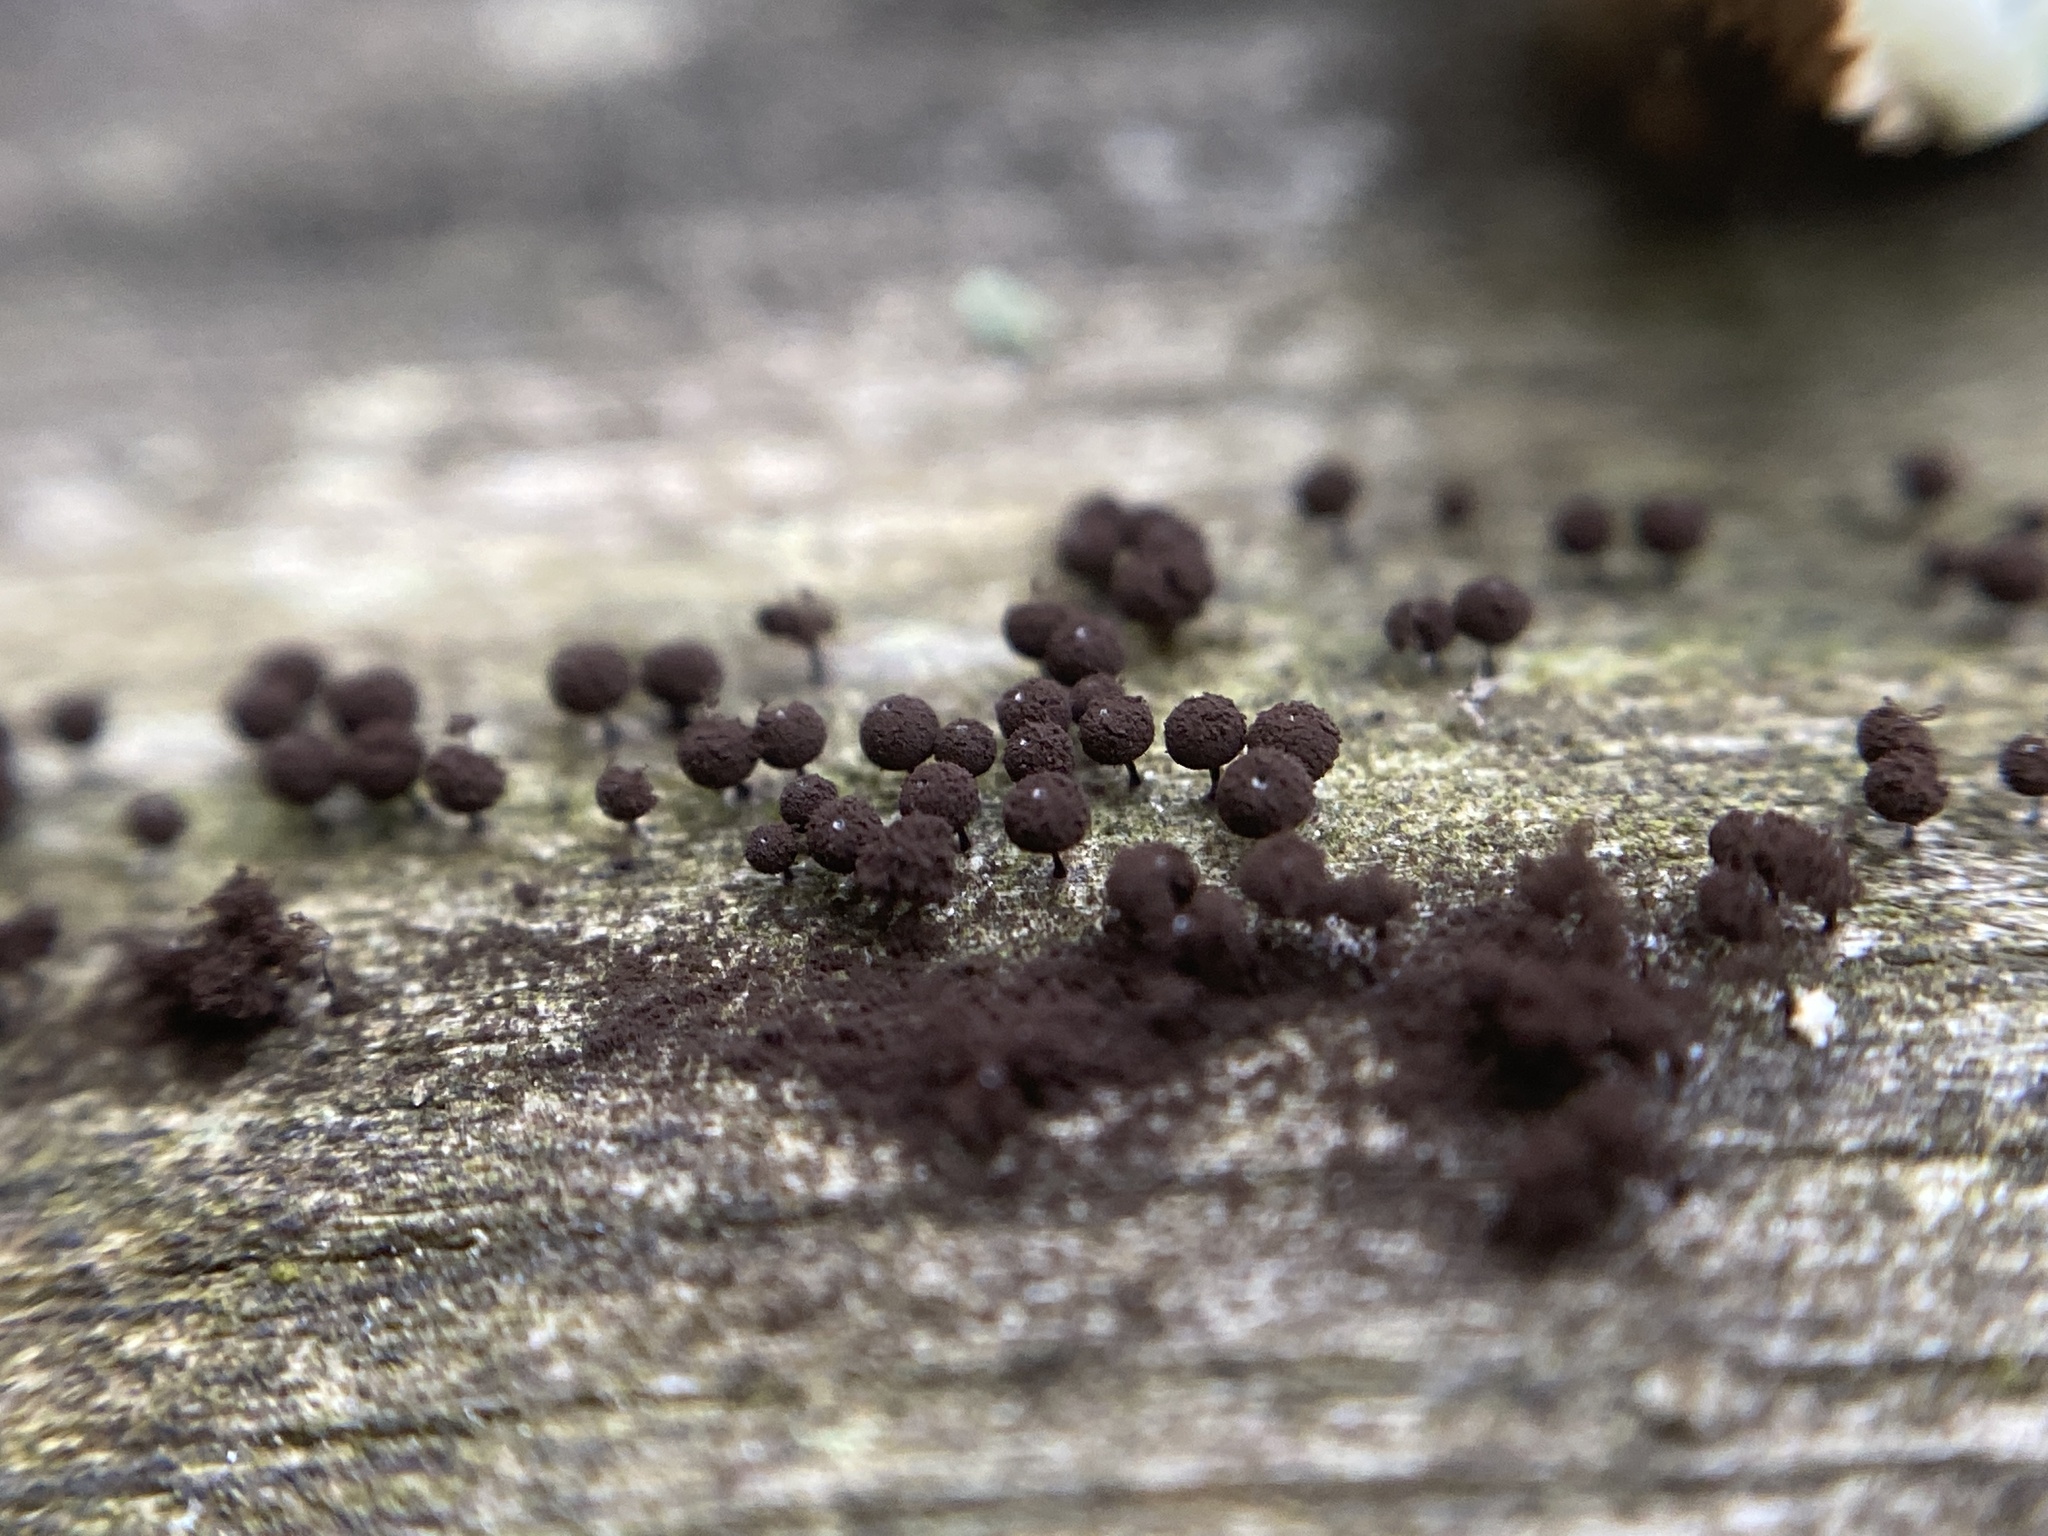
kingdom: Protozoa
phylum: Mycetozoa
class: Myxomycetes
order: Stemonitidales
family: Stemonitidaceae
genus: Enerthenema
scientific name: Enerthenema papillatum
